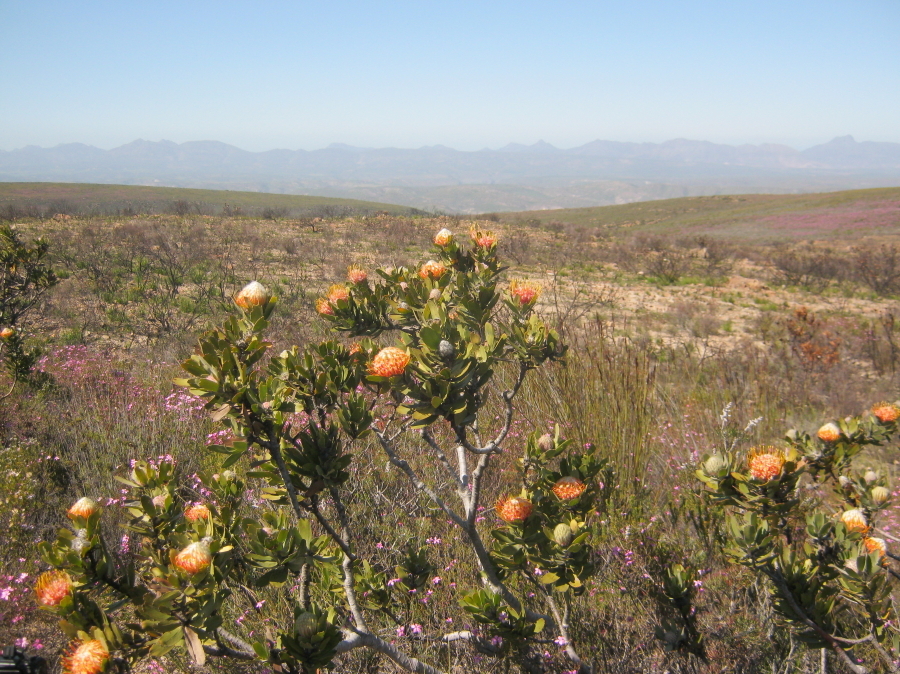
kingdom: Plantae
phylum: Tracheophyta
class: Magnoliopsida
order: Proteales
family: Proteaceae
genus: Leucospermum
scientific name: Leucospermum pluridens
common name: Robinson pincushion
